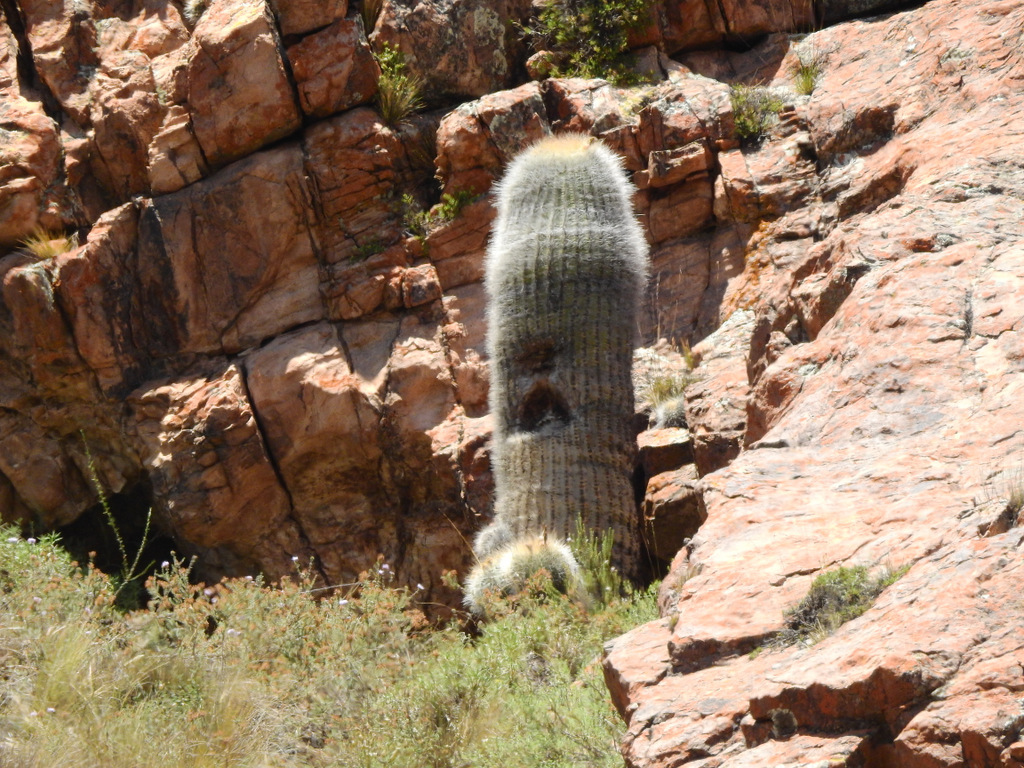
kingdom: Plantae
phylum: Tracheophyta
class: Magnoliopsida
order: Caryophyllales
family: Cactaceae
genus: Soehrensia
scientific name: Soehrensia formosa
